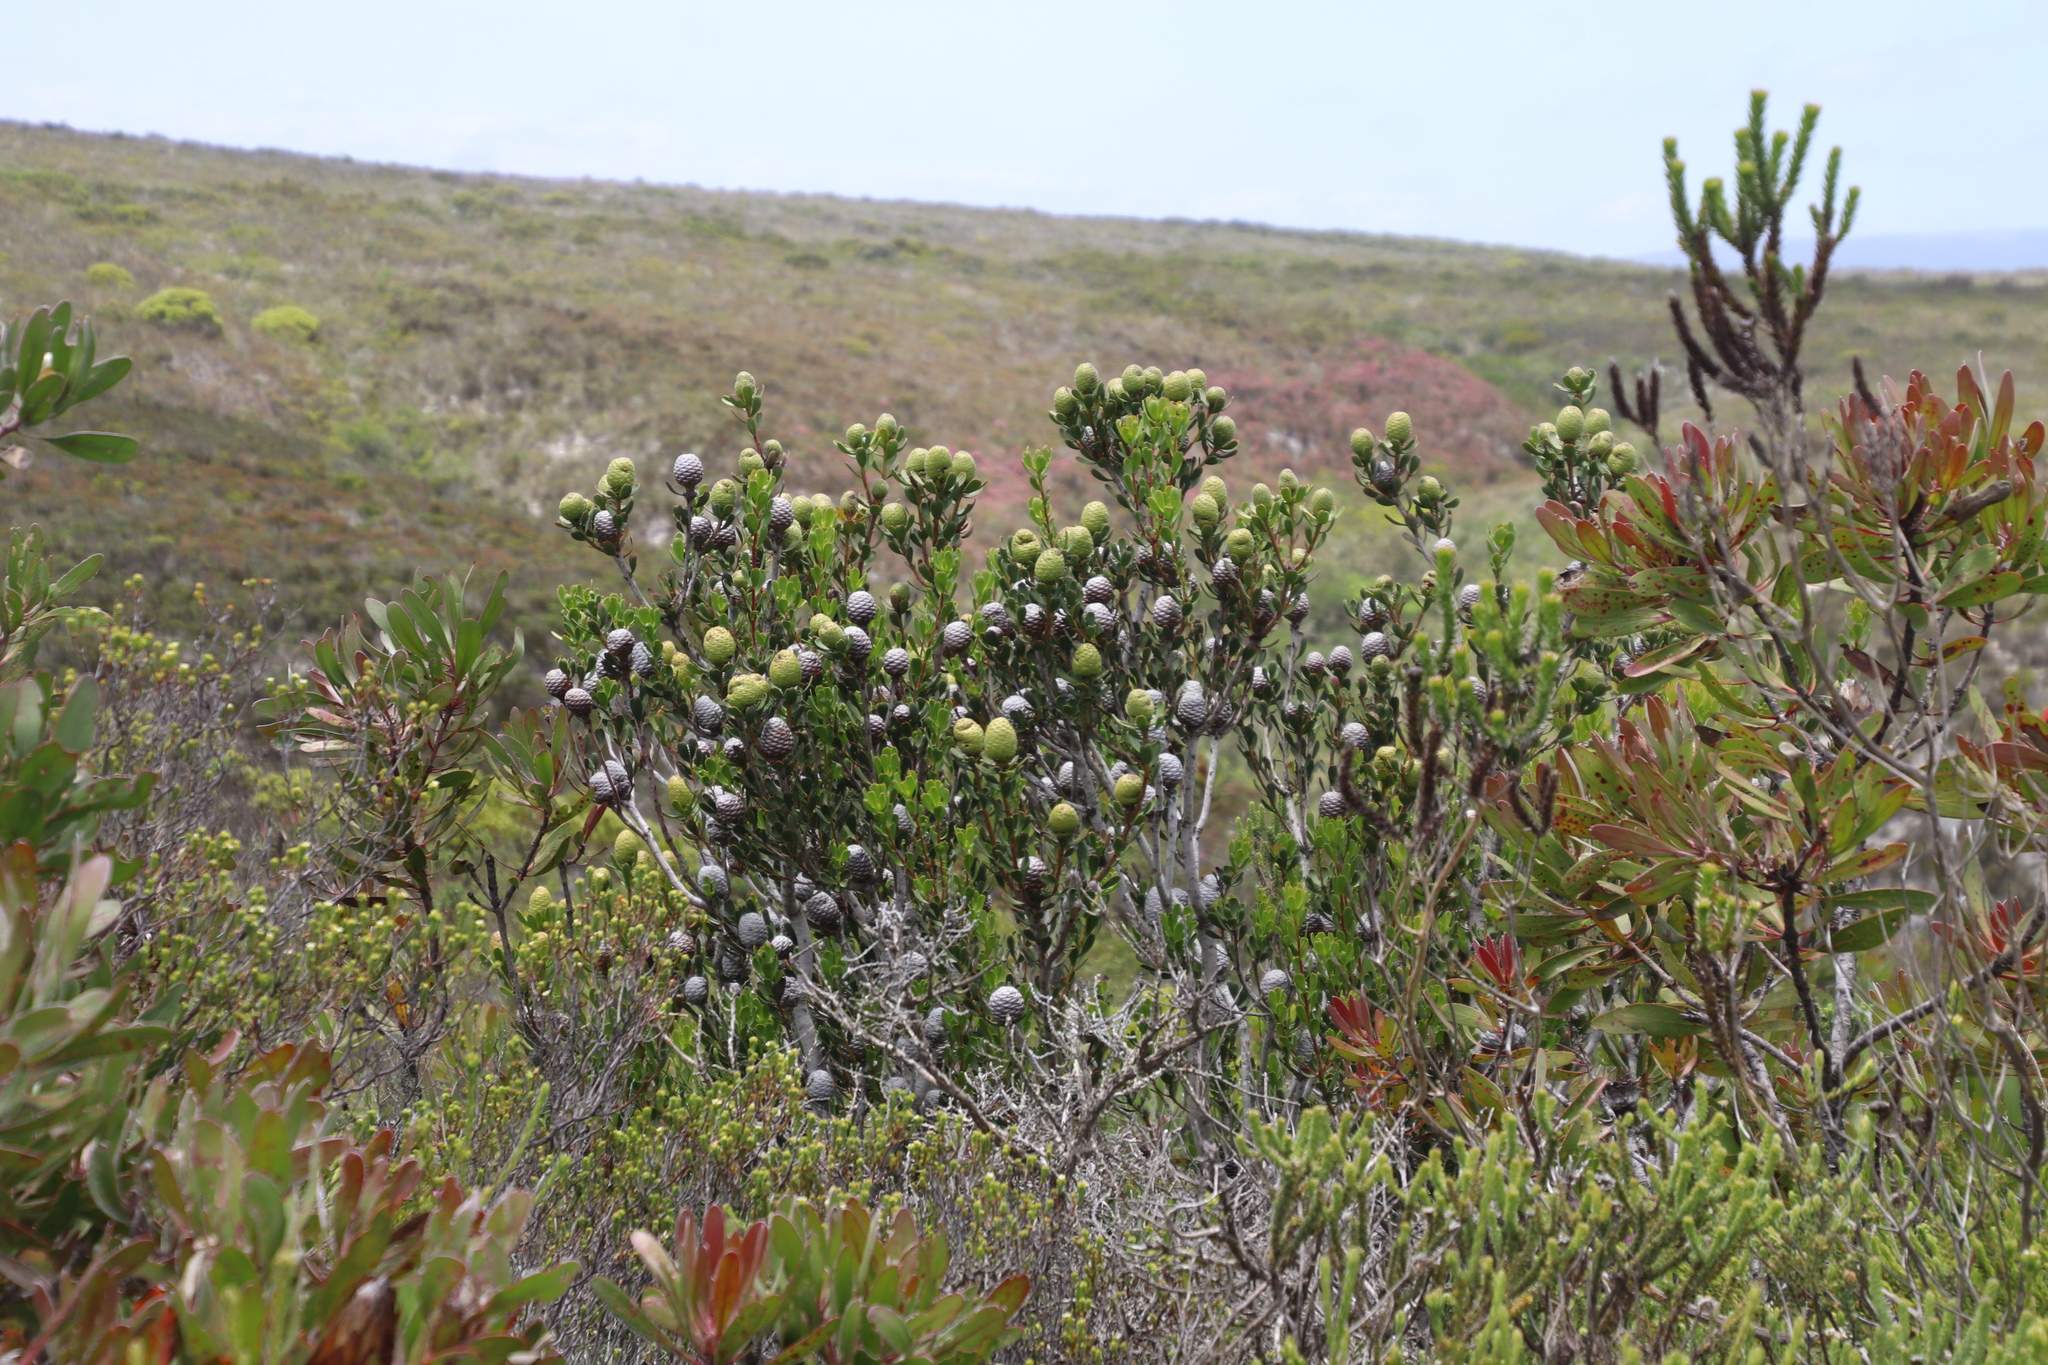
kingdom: Plantae
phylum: Tracheophyta
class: Magnoliopsida
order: Proteales
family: Proteaceae
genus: Leucadendron
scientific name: Leucadendron muirii
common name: Silver-ball conebush
